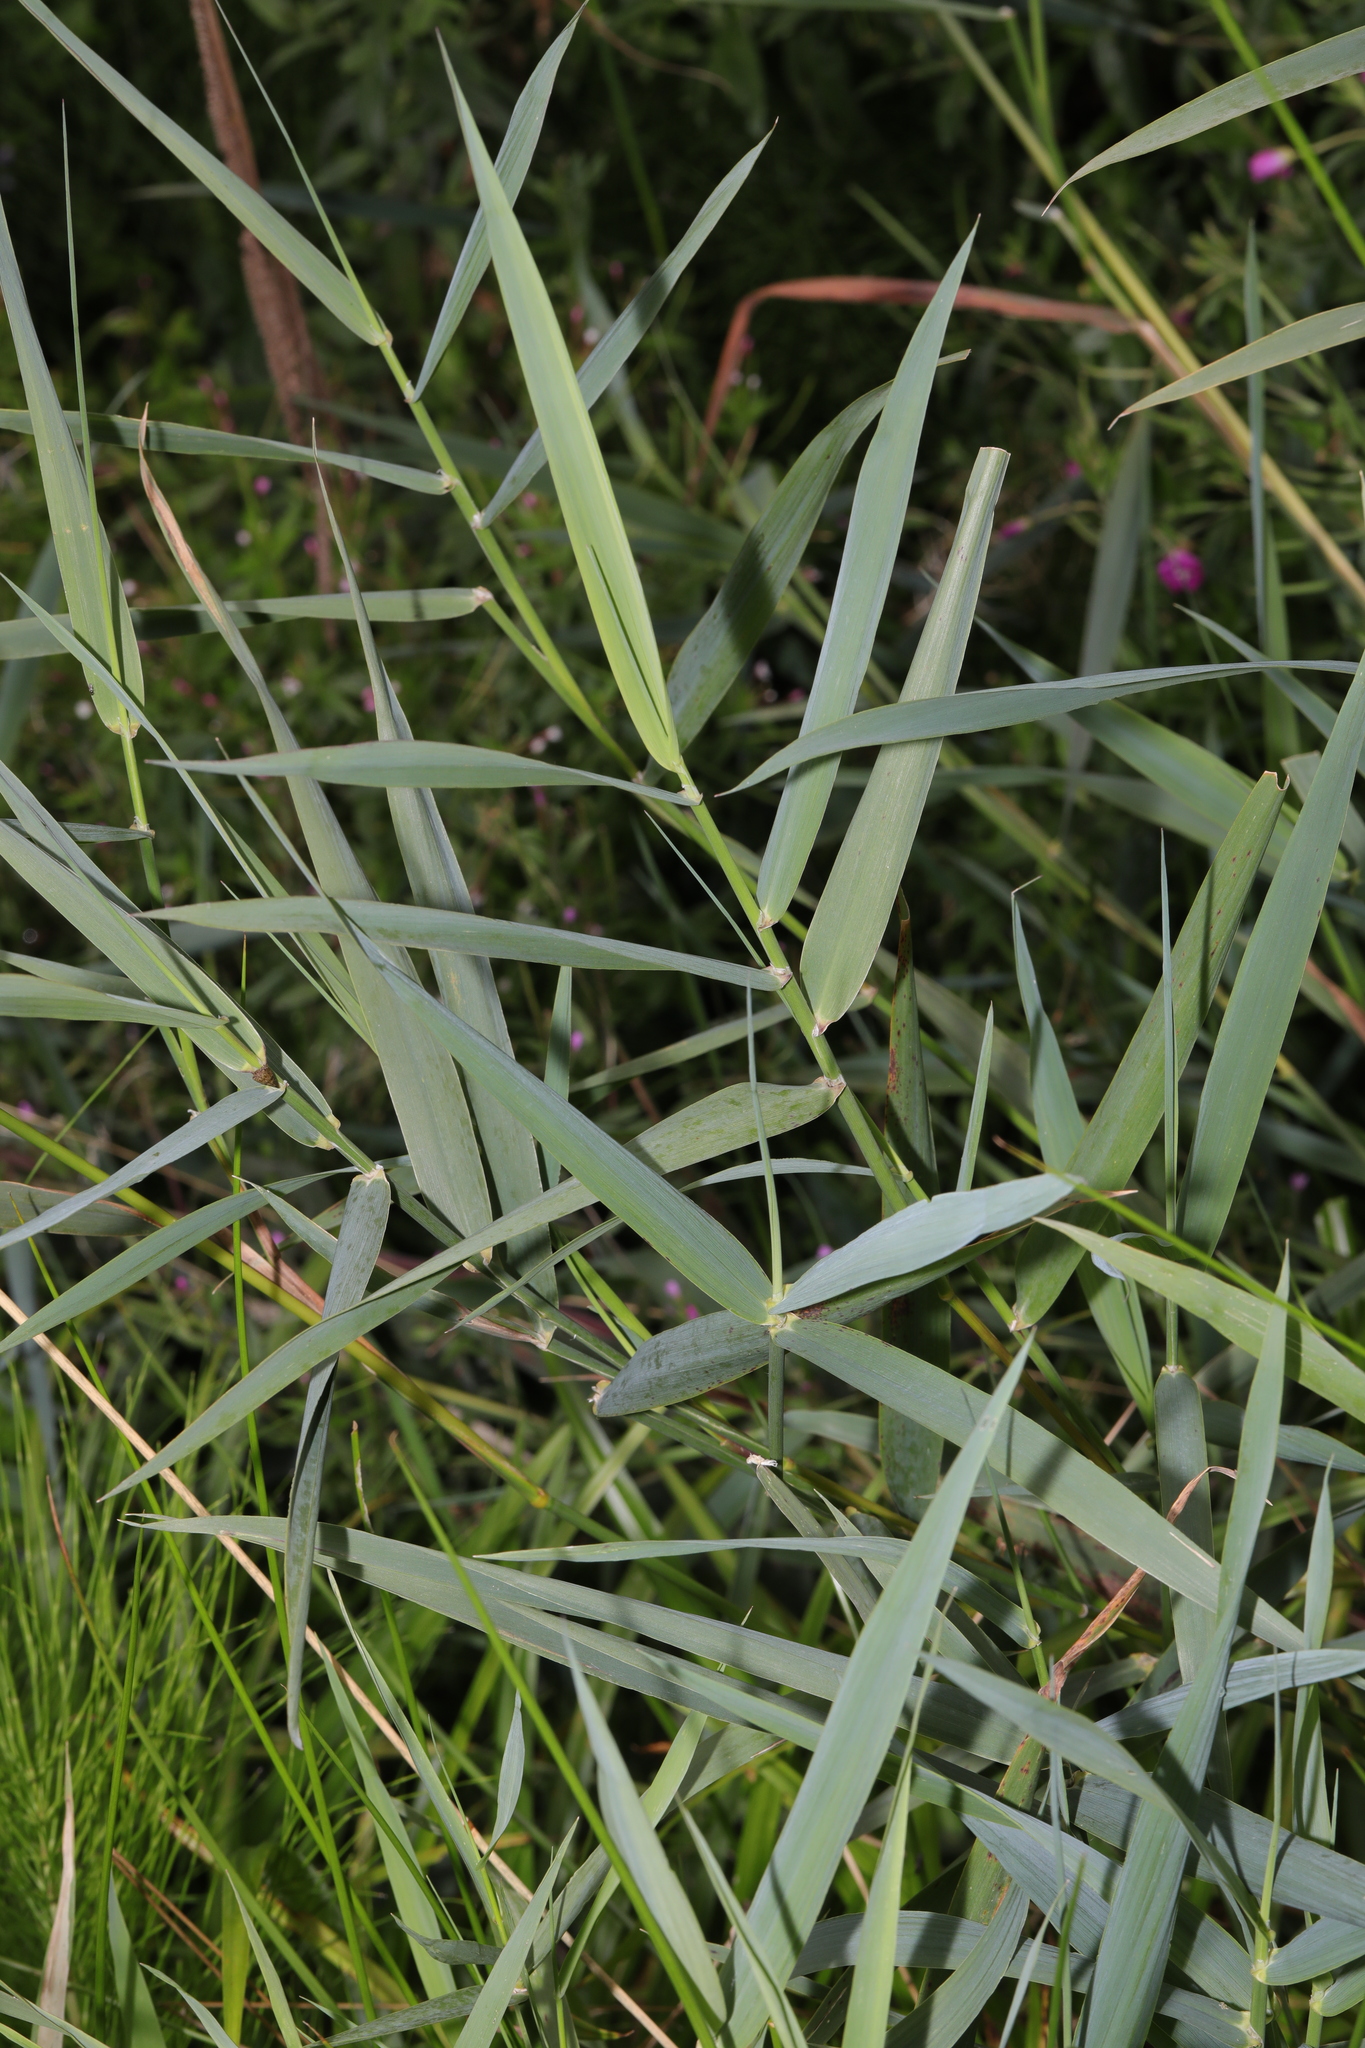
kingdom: Plantae
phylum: Tracheophyta
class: Liliopsida
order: Poales
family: Poaceae
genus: Phragmites
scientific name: Phragmites australis
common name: Common reed
